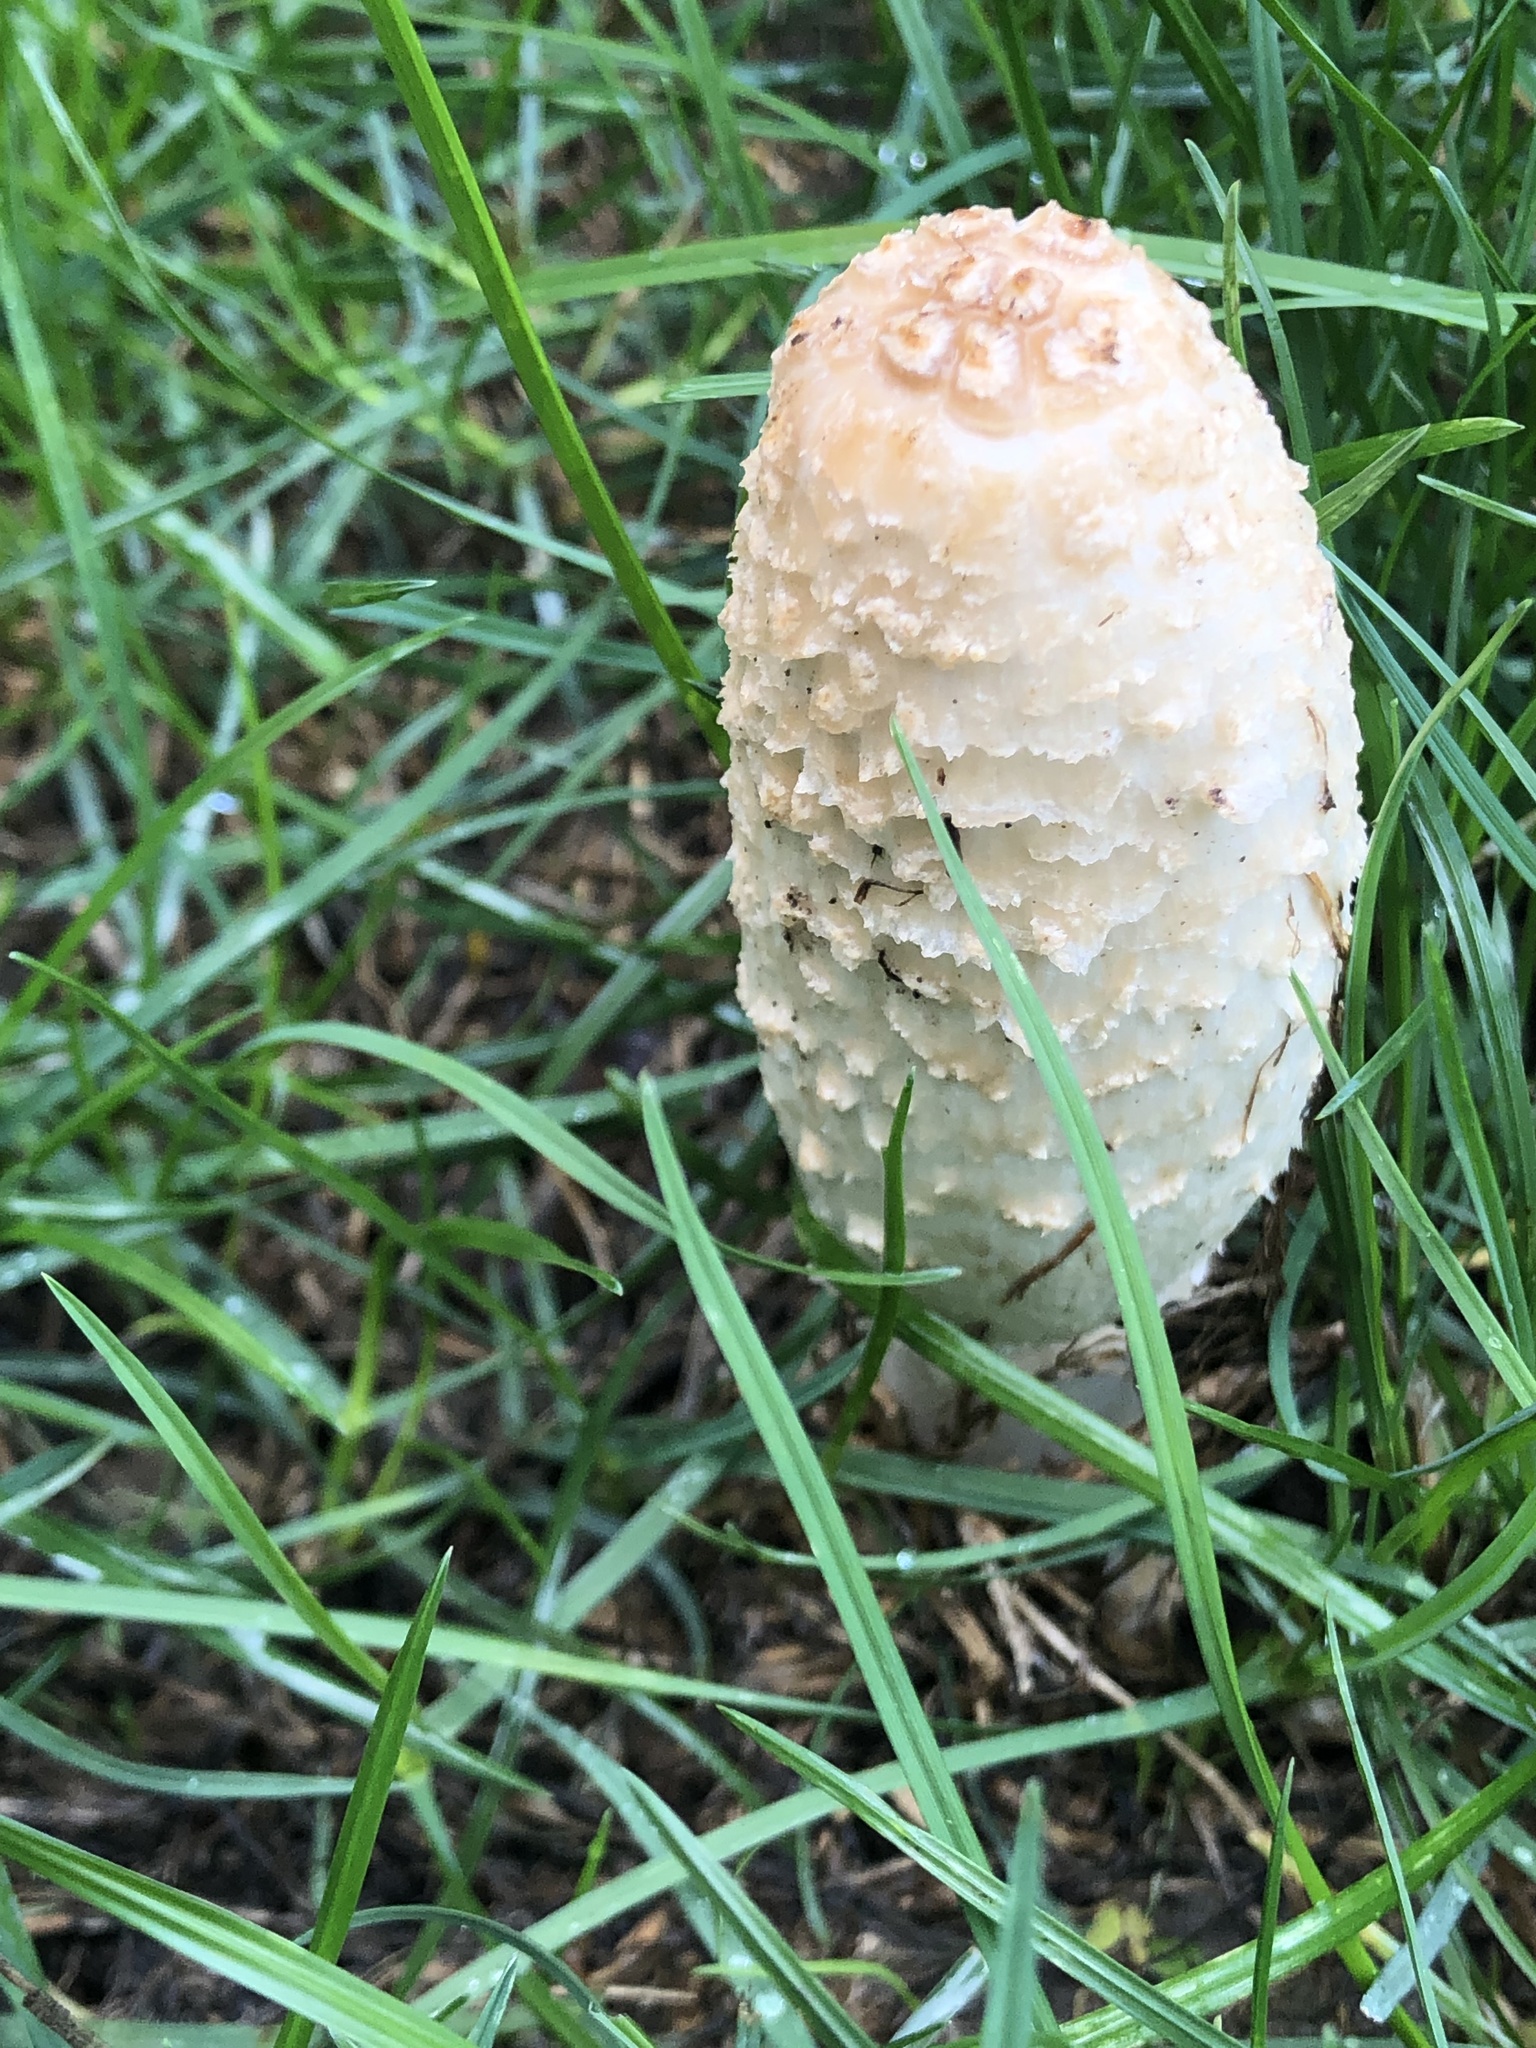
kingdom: Fungi
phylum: Basidiomycota
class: Agaricomycetes
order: Agaricales
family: Agaricaceae
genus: Coprinus
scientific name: Coprinus comatus
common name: Lawyer's wig
